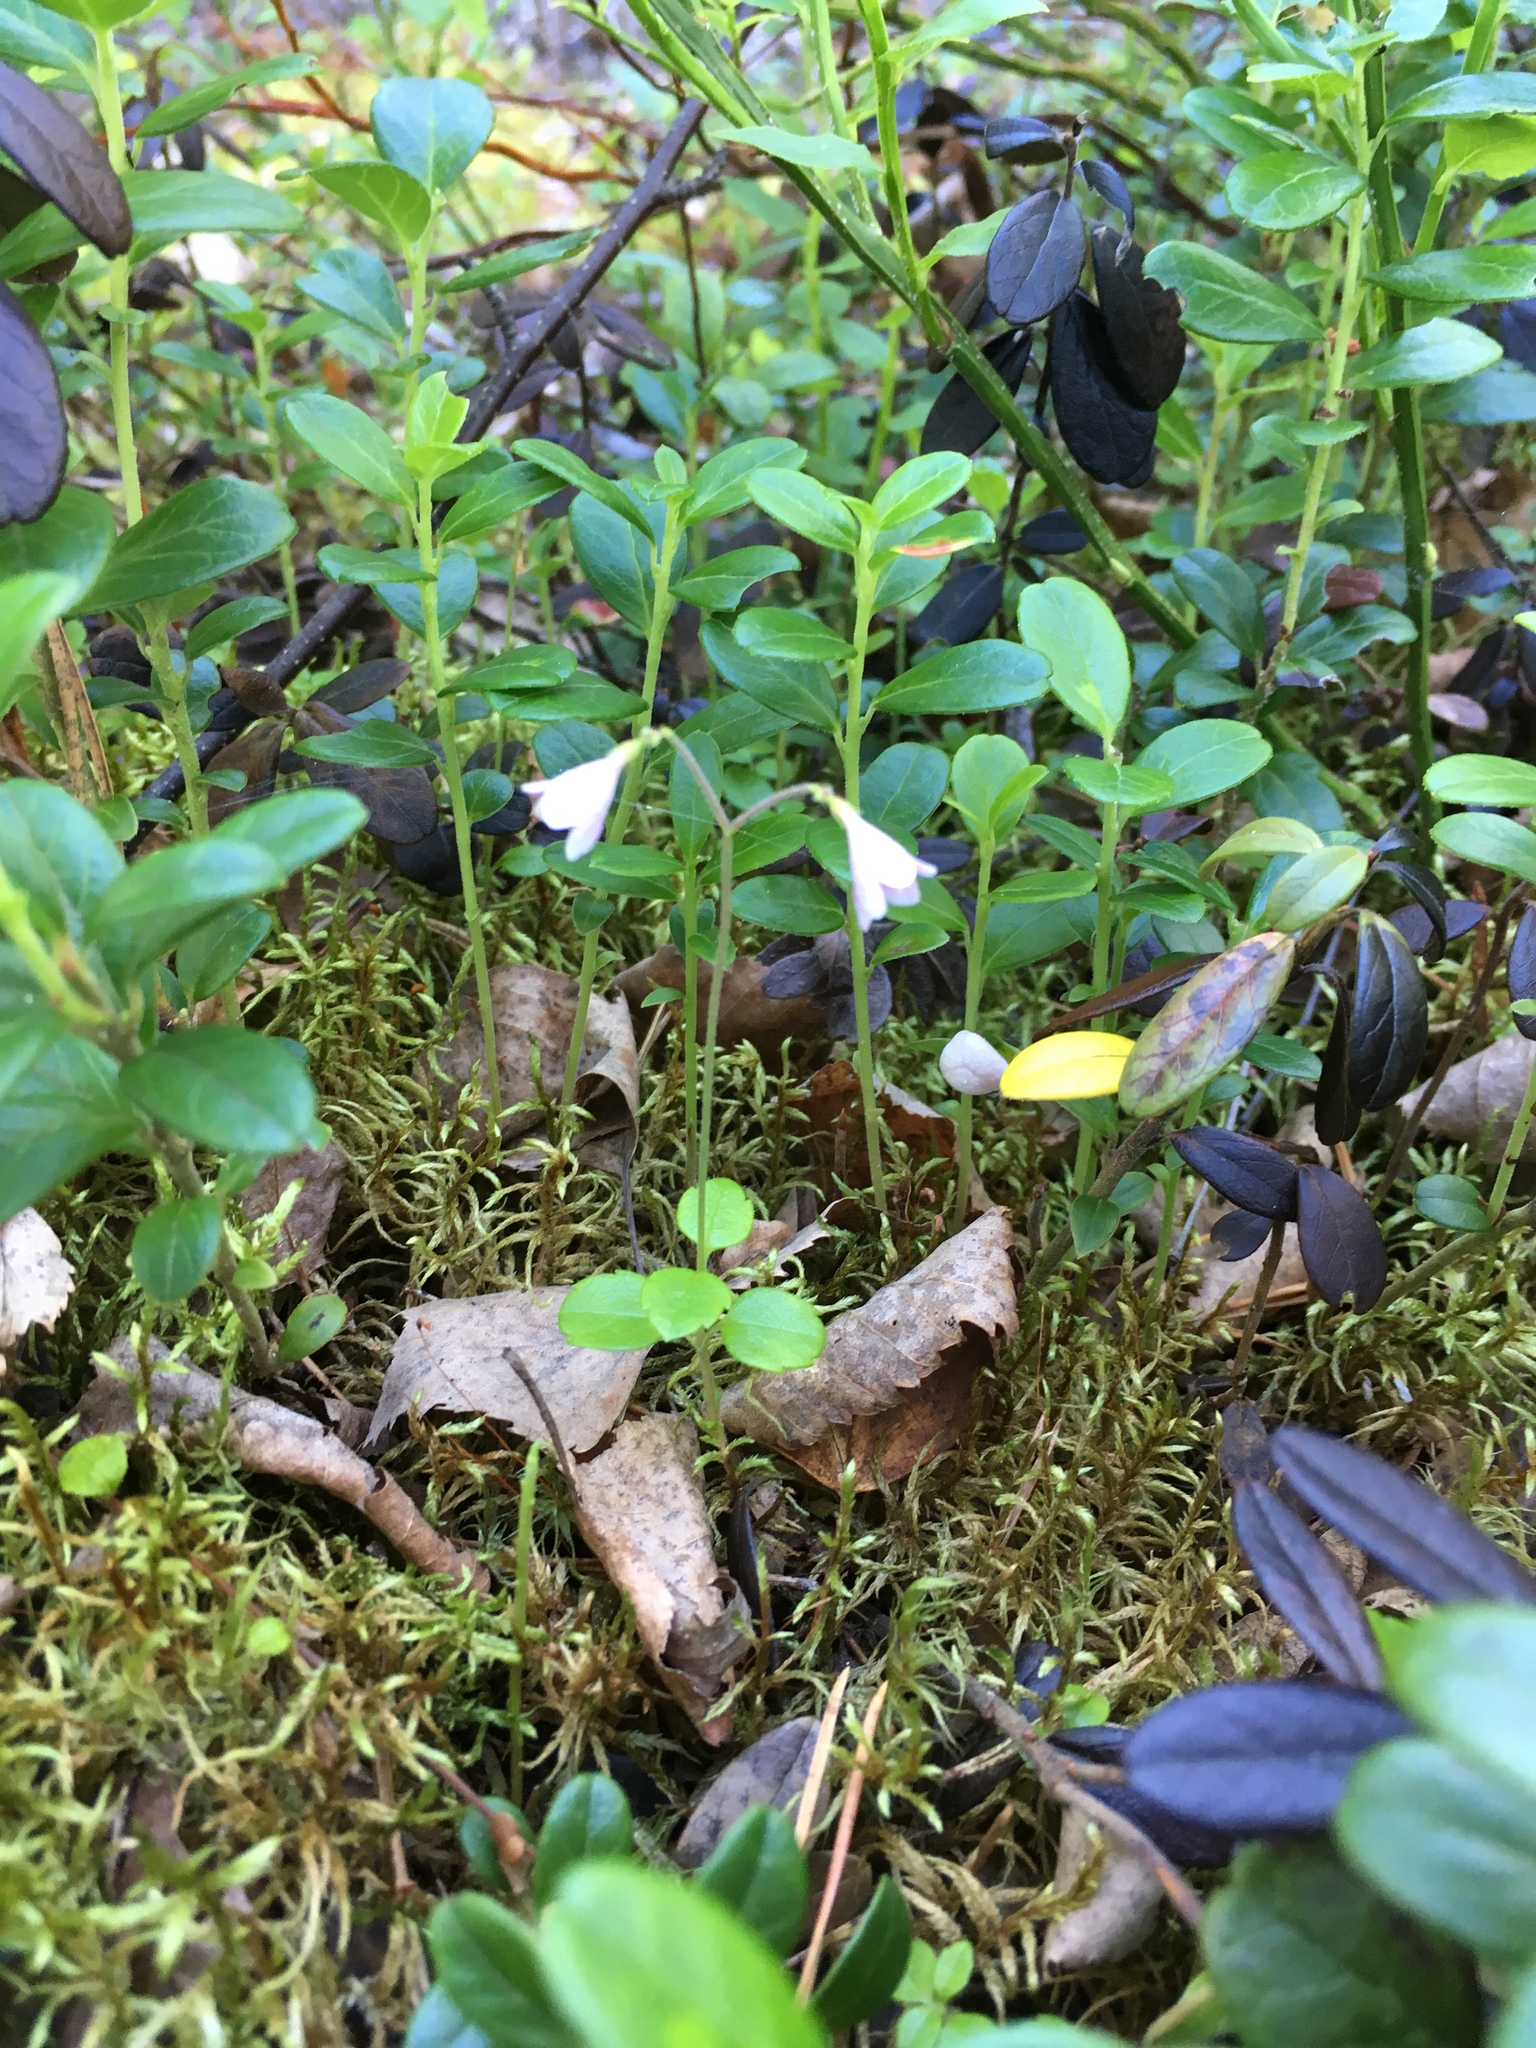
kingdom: Plantae
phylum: Tracheophyta
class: Magnoliopsida
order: Dipsacales
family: Caprifoliaceae
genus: Linnaea
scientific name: Linnaea borealis
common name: Twinflower
